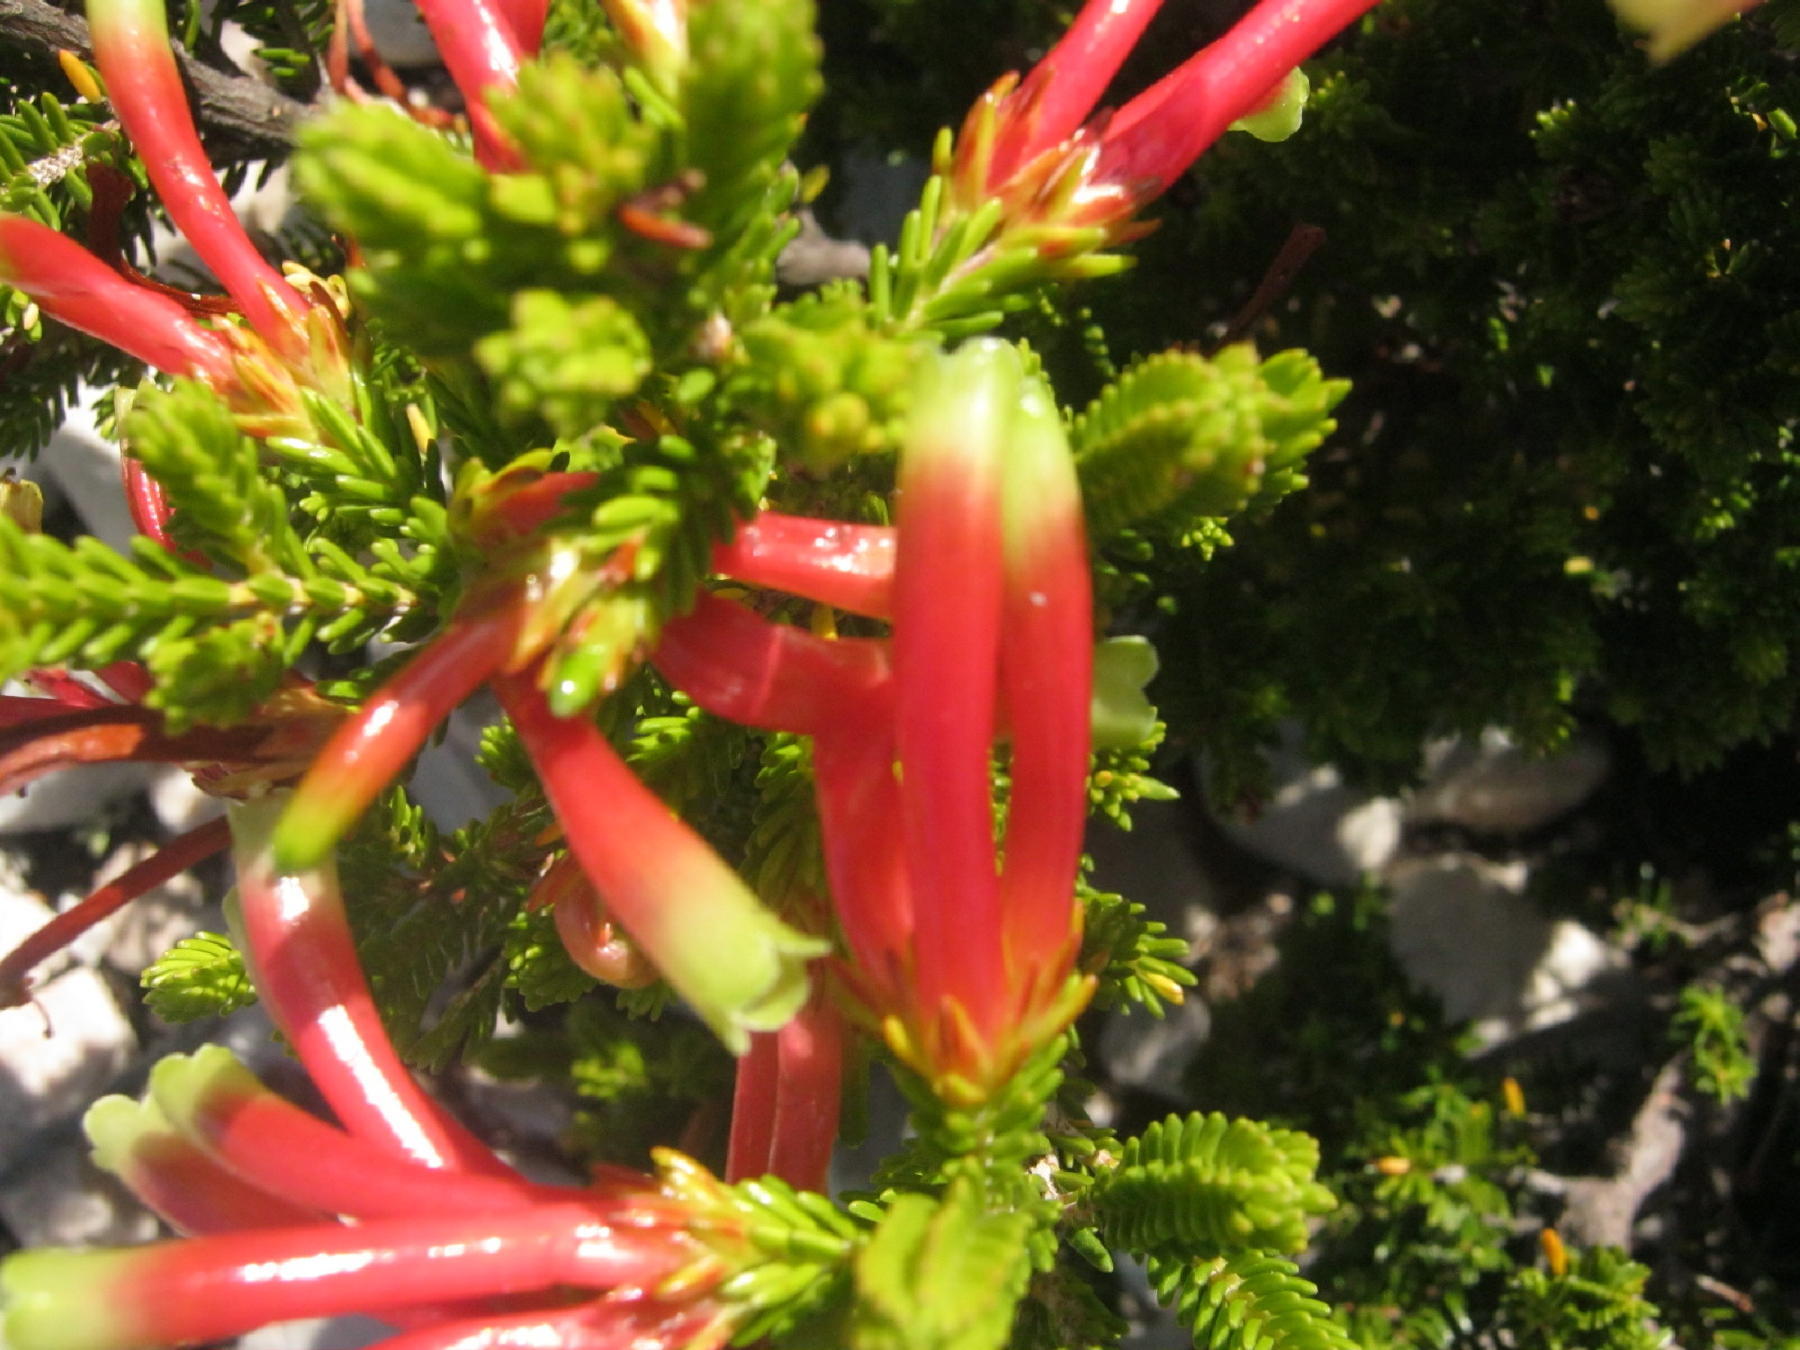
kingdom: Plantae
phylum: Tracheophyta
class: Magnoliopsida
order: Ericales
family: Ericaceae
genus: Erica
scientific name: Erica discolor
